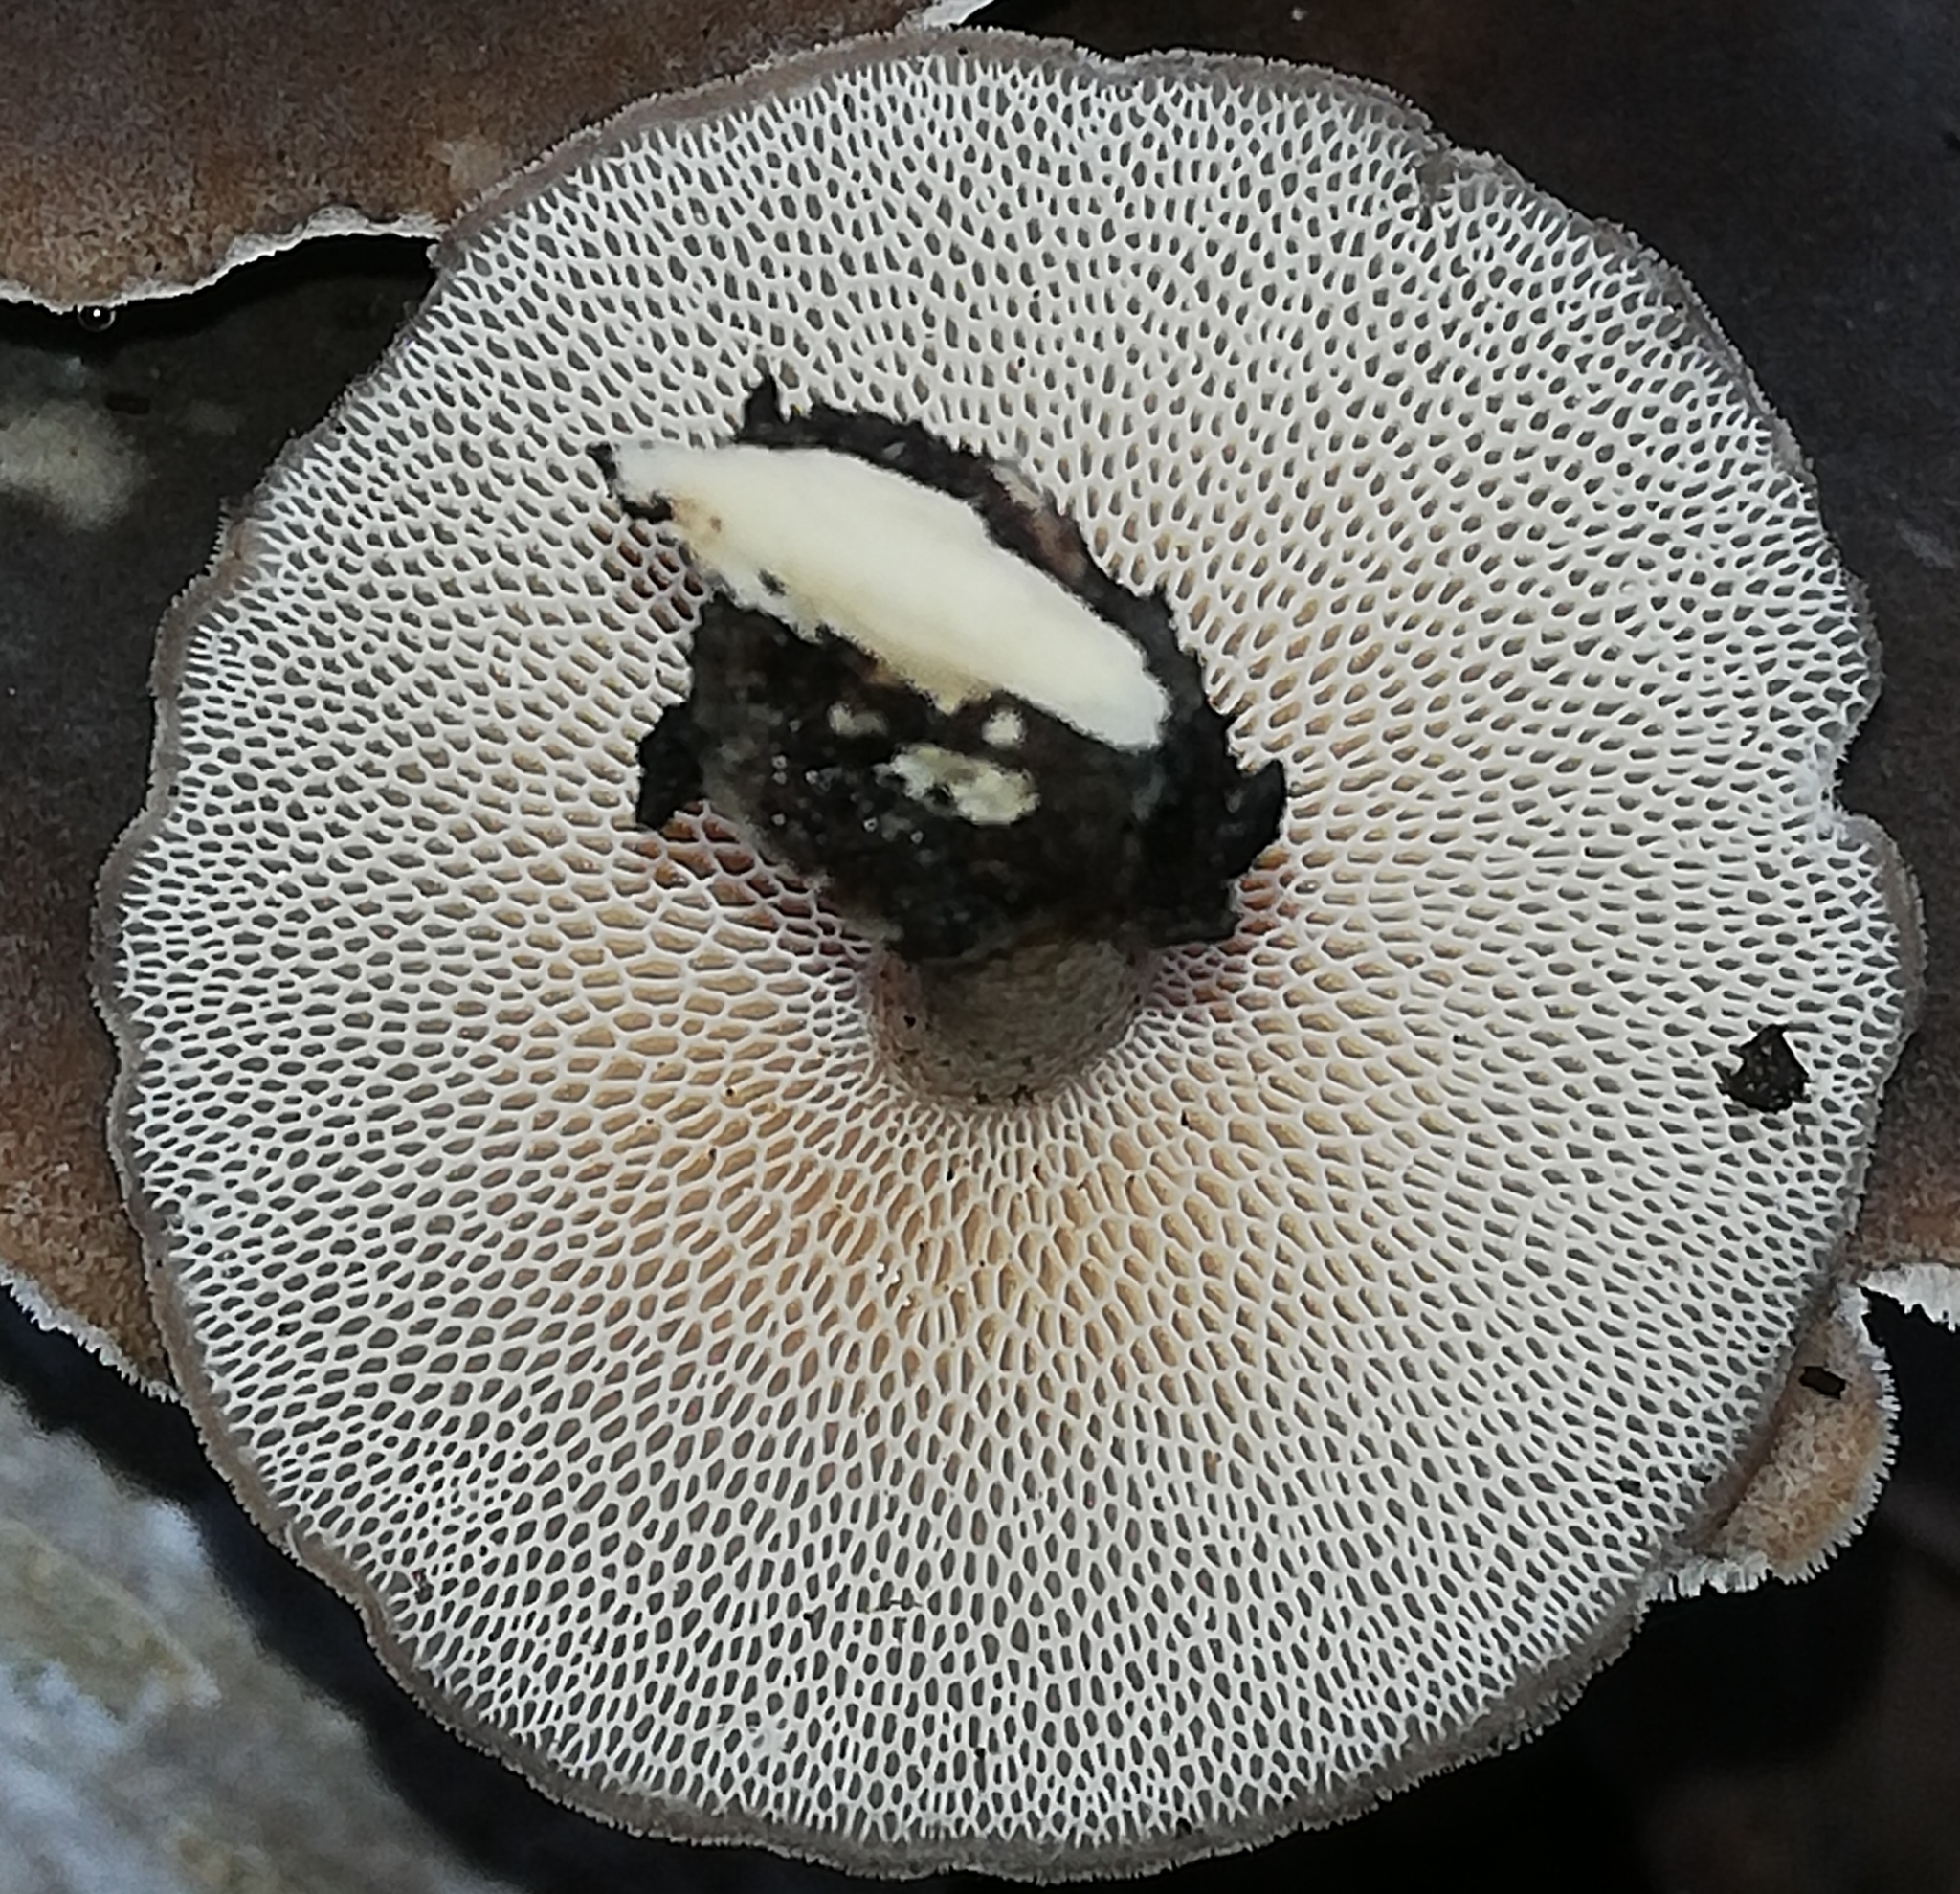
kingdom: Fungi
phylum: Basidiomycota
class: Agaricomycetes
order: Polyporales
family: Polyporaceae
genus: Lentinus
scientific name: Lentinus brumalis
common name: Winter polypore
